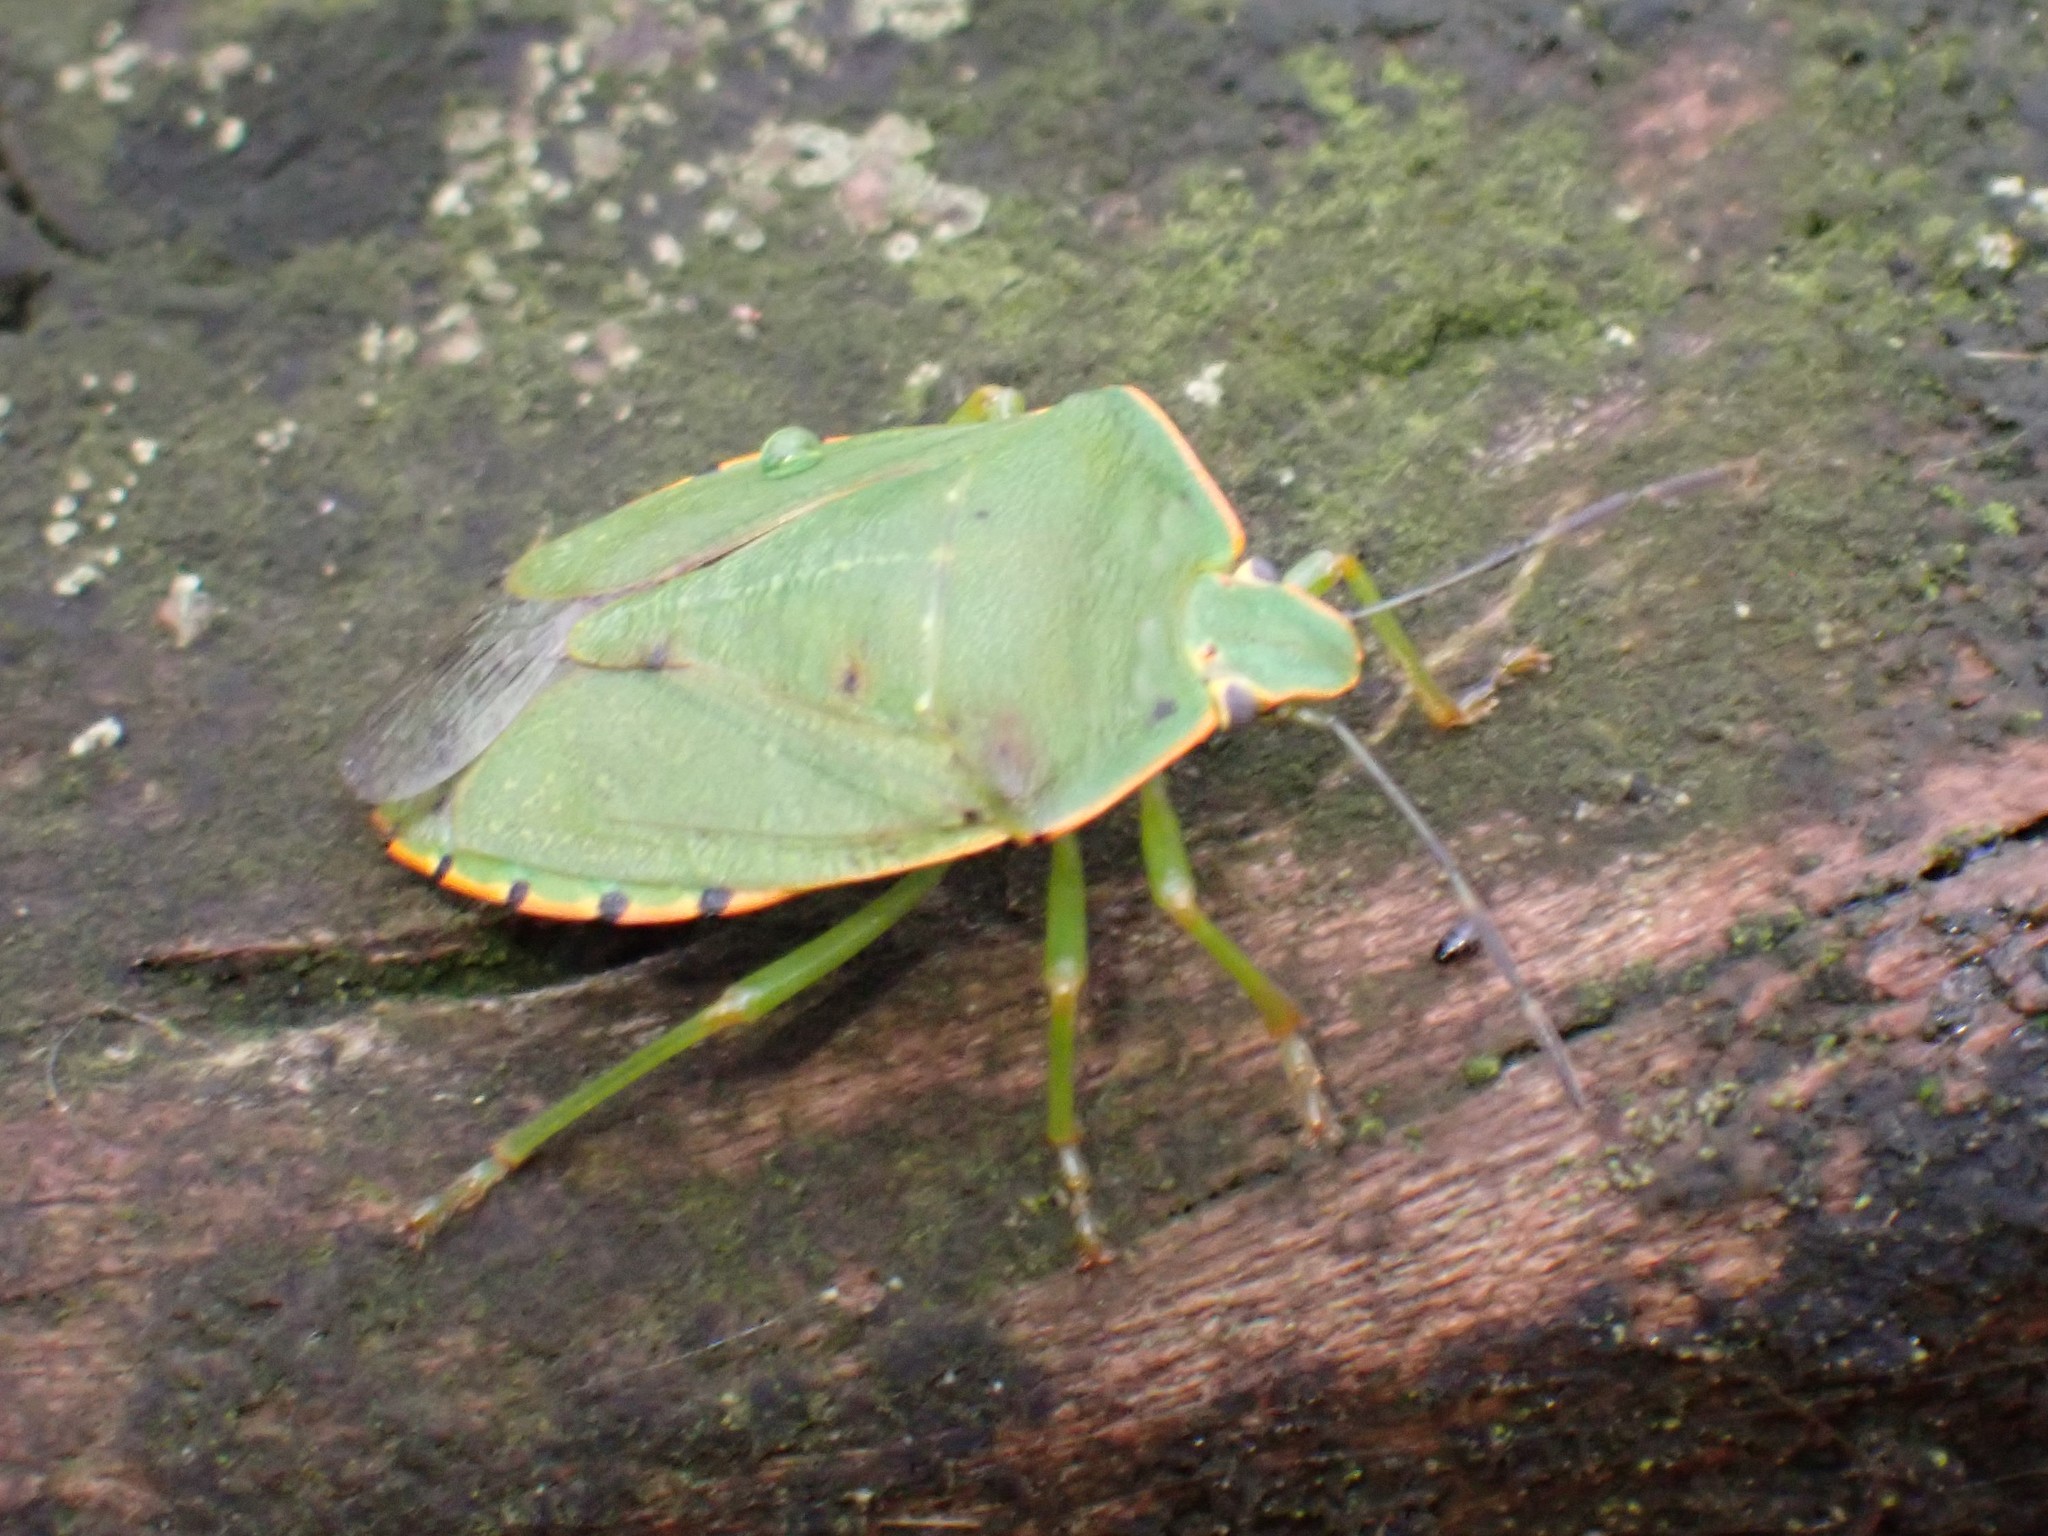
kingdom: Animalia
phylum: Arthropoda
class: Insecta
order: Hemiptera
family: Pentatomidae
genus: Chinavia
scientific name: Chinavia hilaris
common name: Green stink bug
